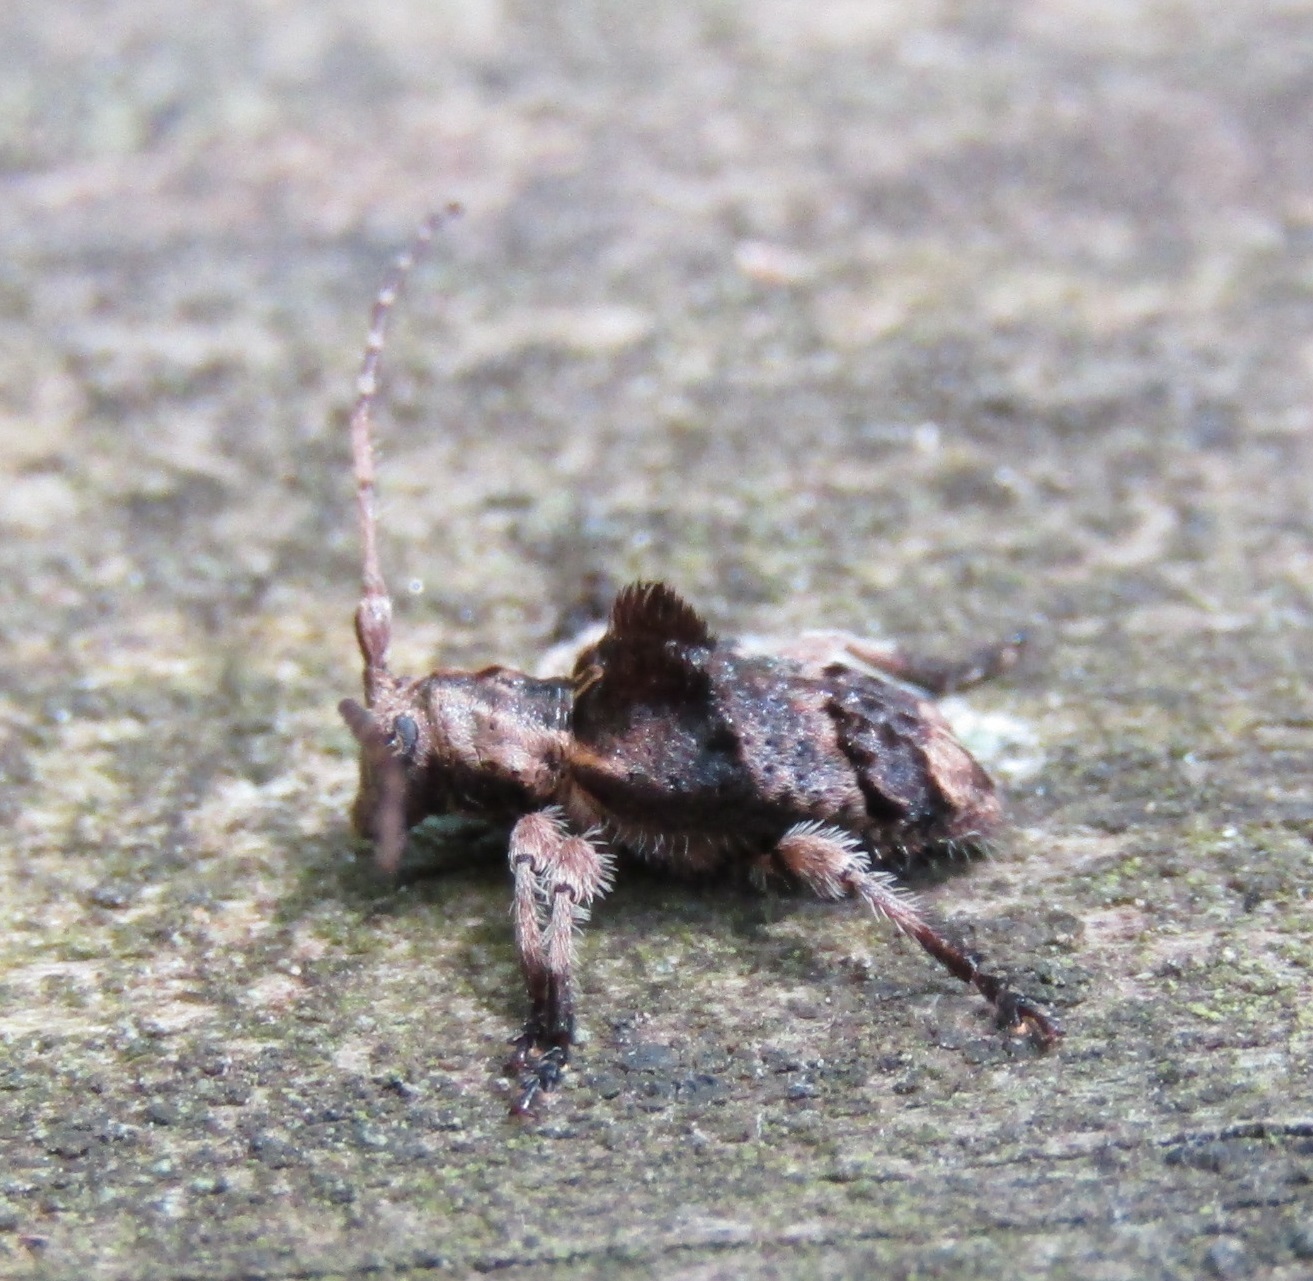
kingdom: Animalia
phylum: Arthropoda
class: Insecta
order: Coleoptera
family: Cerambycidae
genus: Hybolasius
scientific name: Hybolasius cristus
